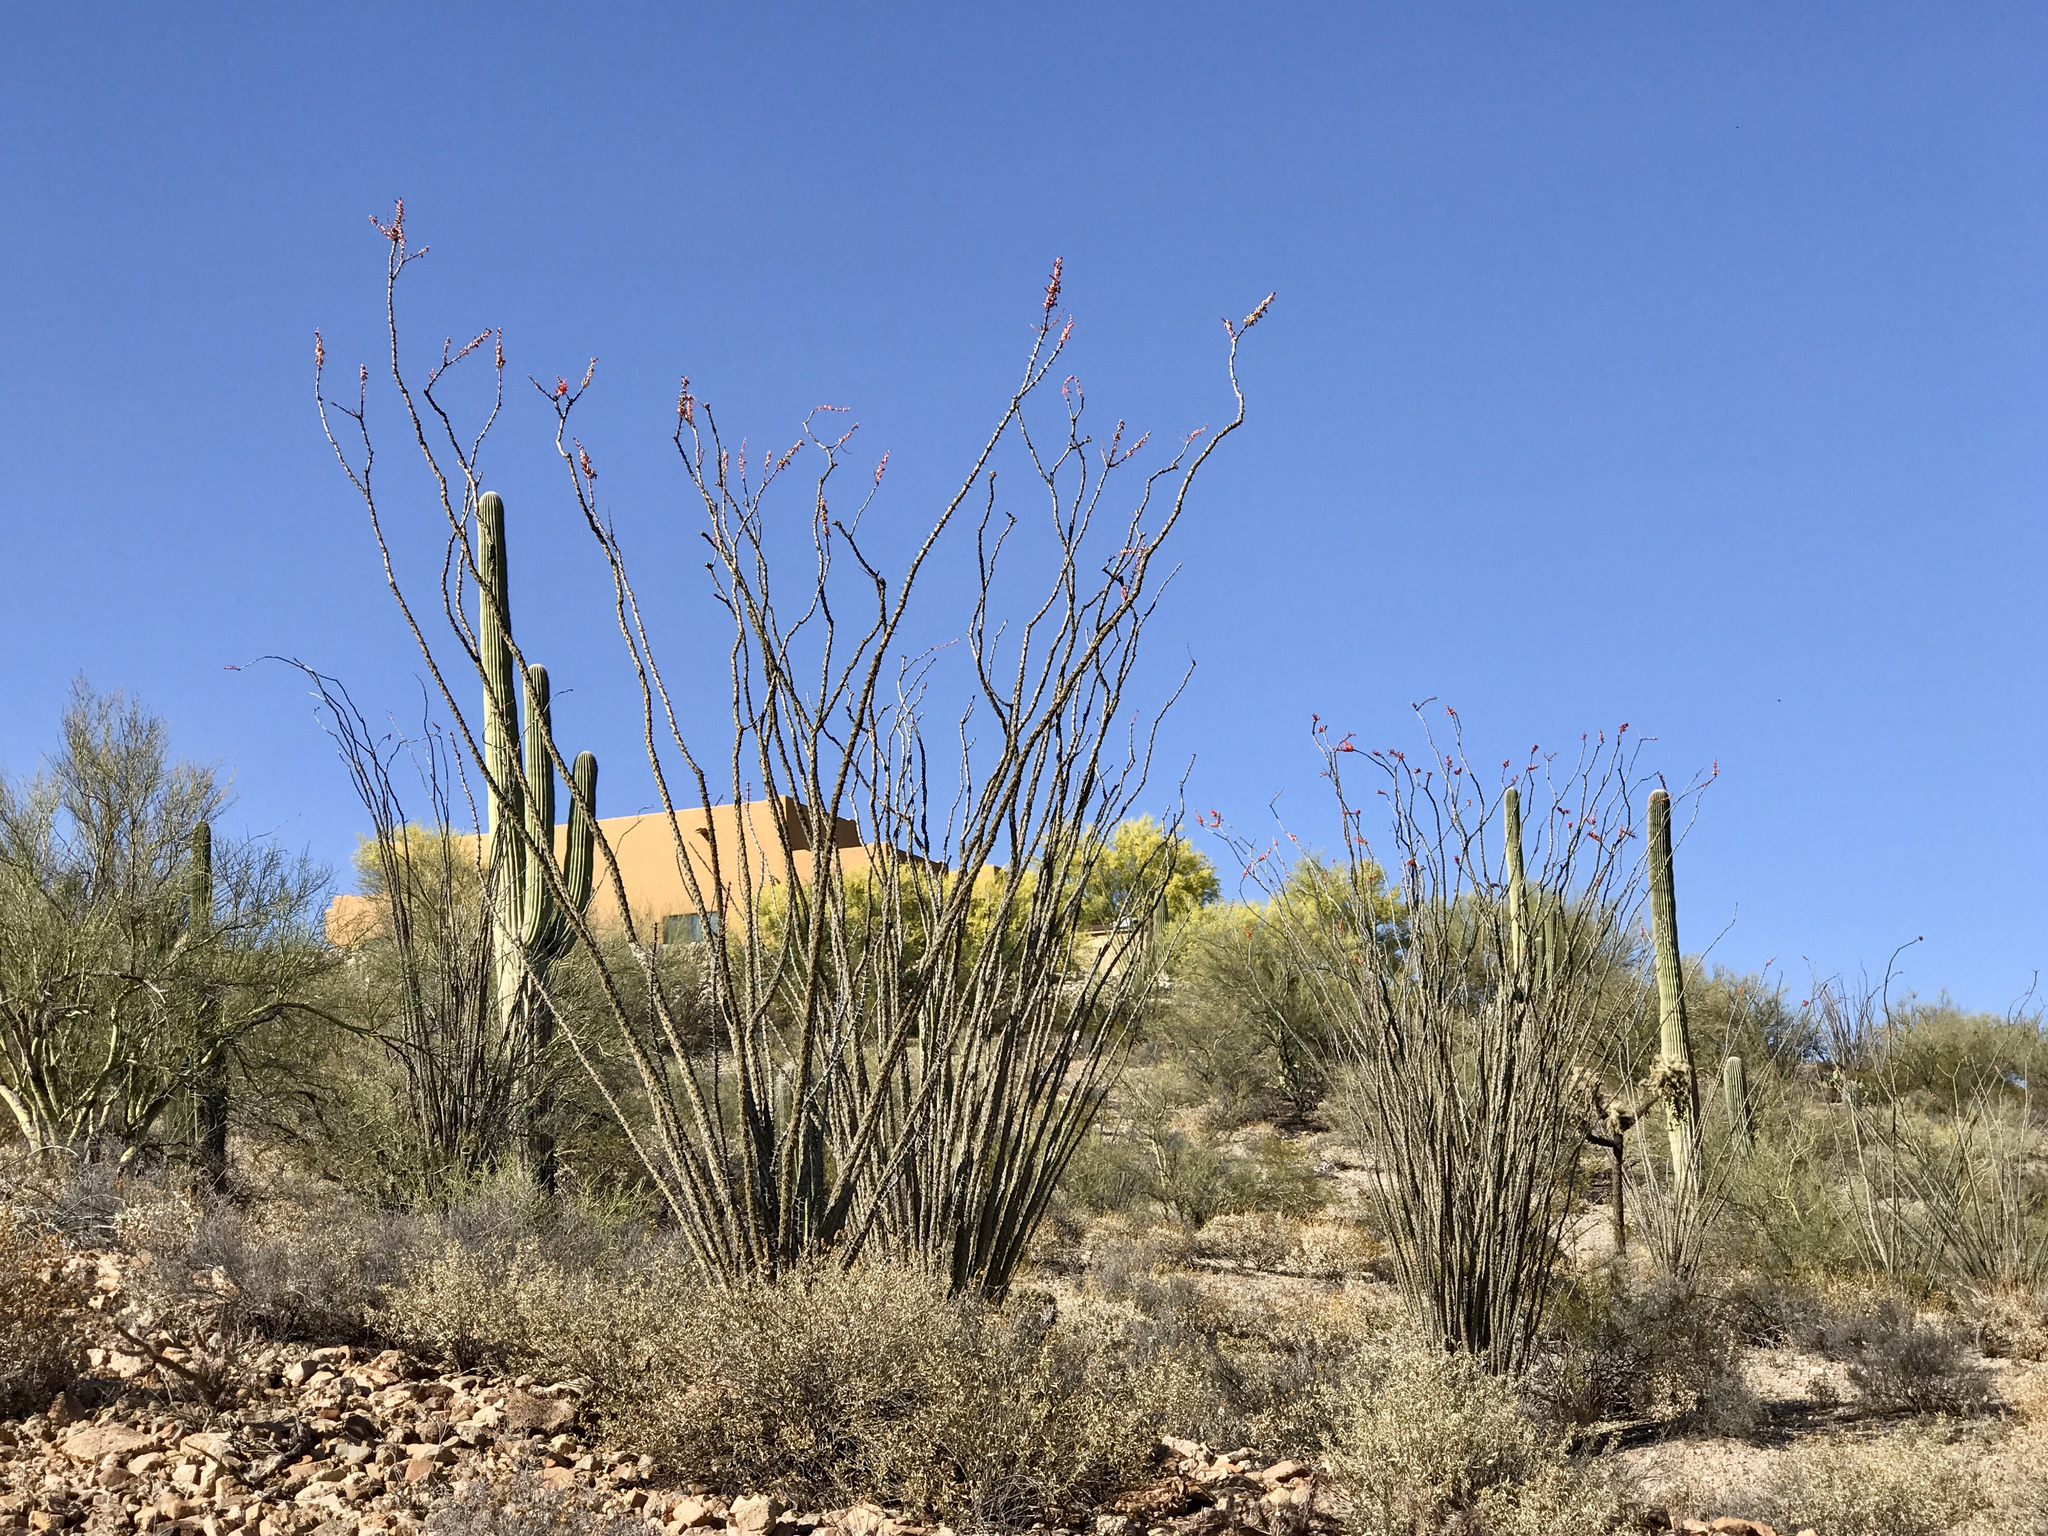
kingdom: Plantae
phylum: Tracheophyta
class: Magnoliopsida
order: Ericales
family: Fouquieriaceae
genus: Fouquieria
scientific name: Fouquieria splendens
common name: Vine-cactus
